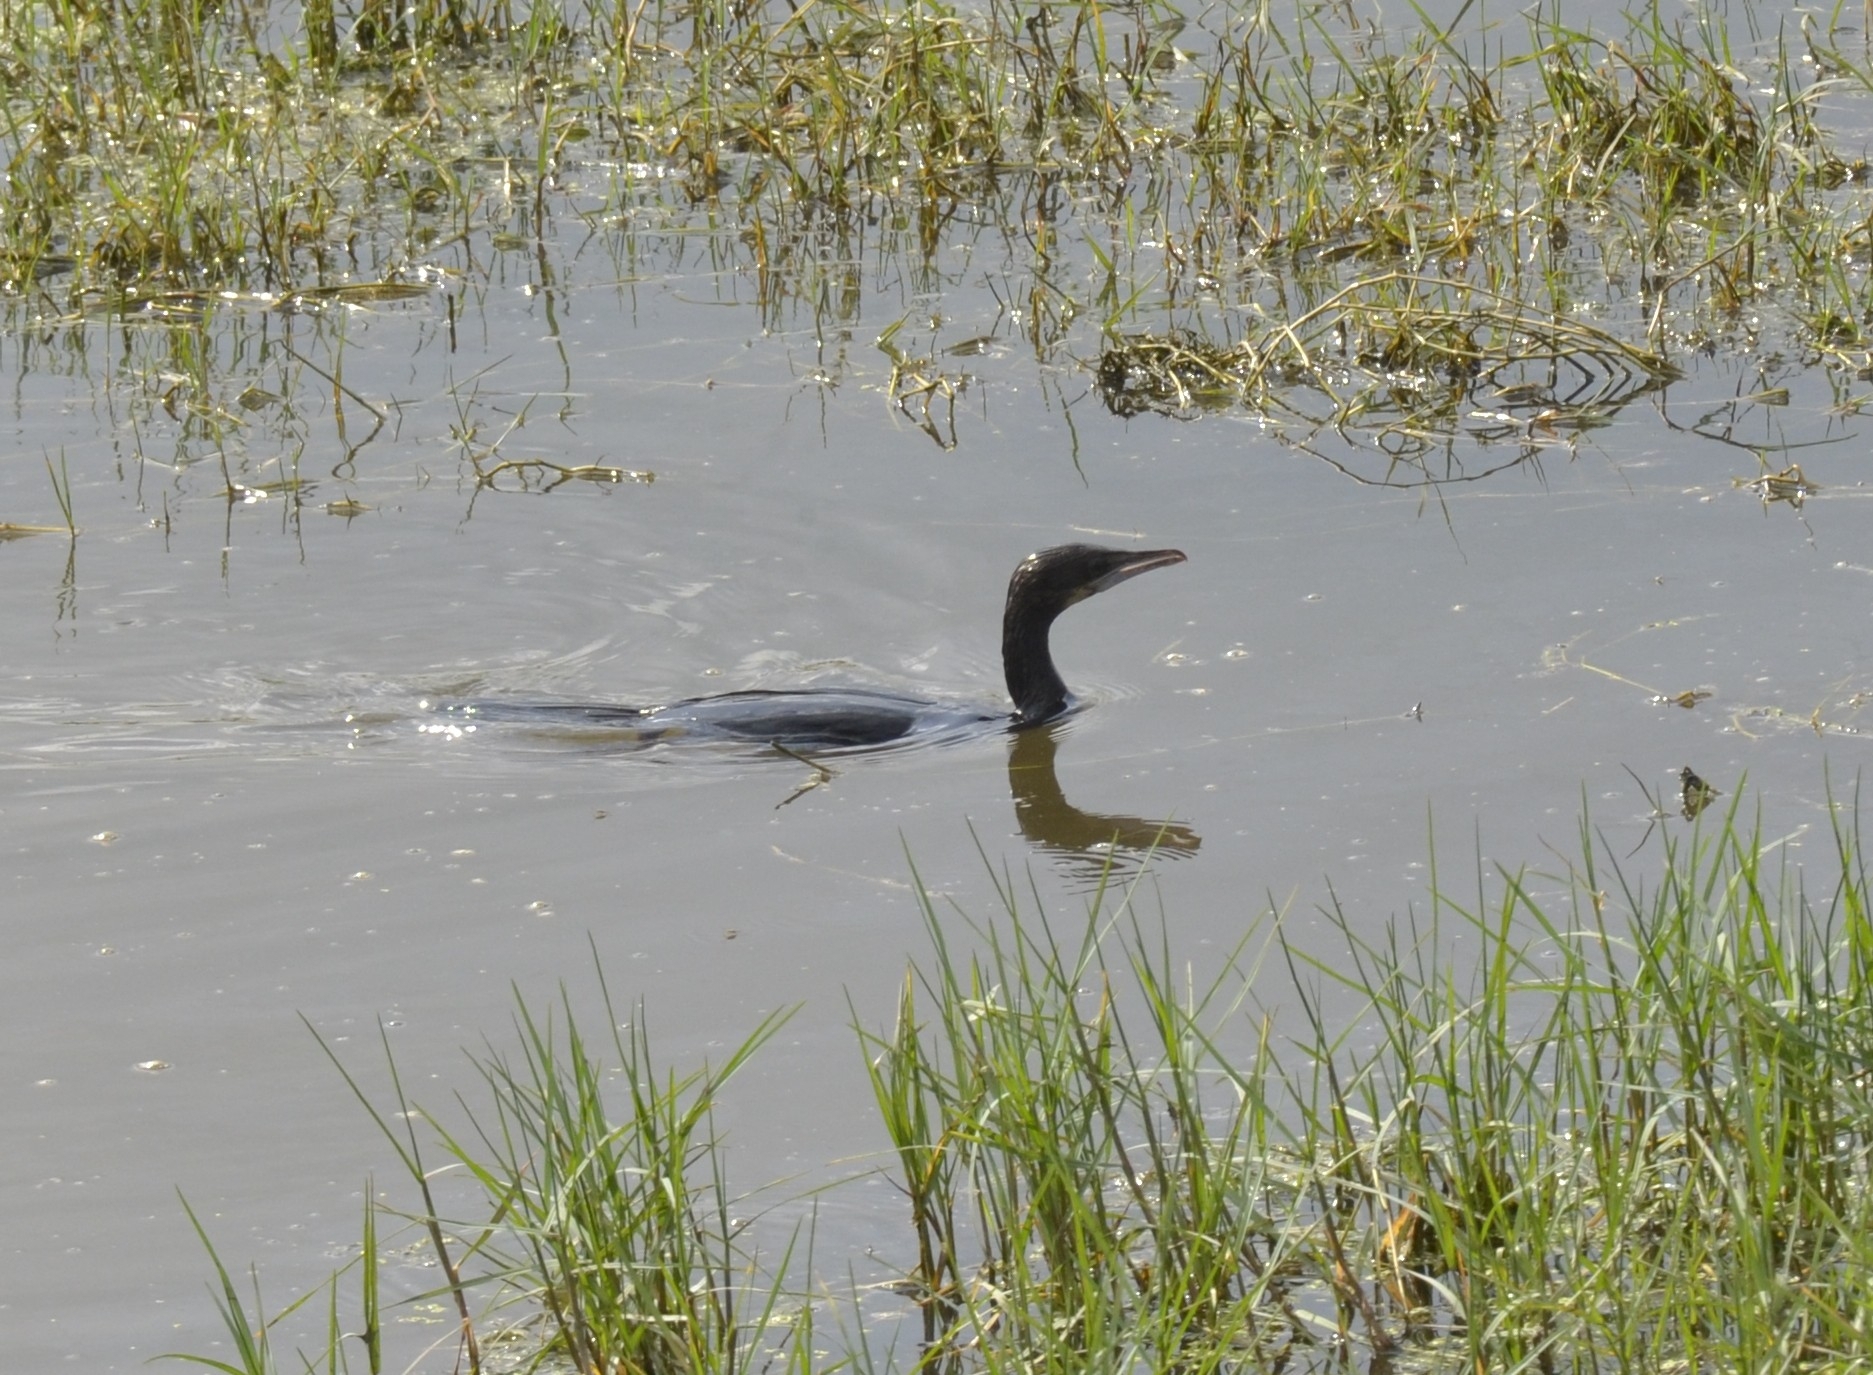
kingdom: Animalia
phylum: Chordata
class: Aves
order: Suliformes
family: Phalacrocoracidae
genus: Microcarbo
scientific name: Microcarbo niger
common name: Little cormorant
